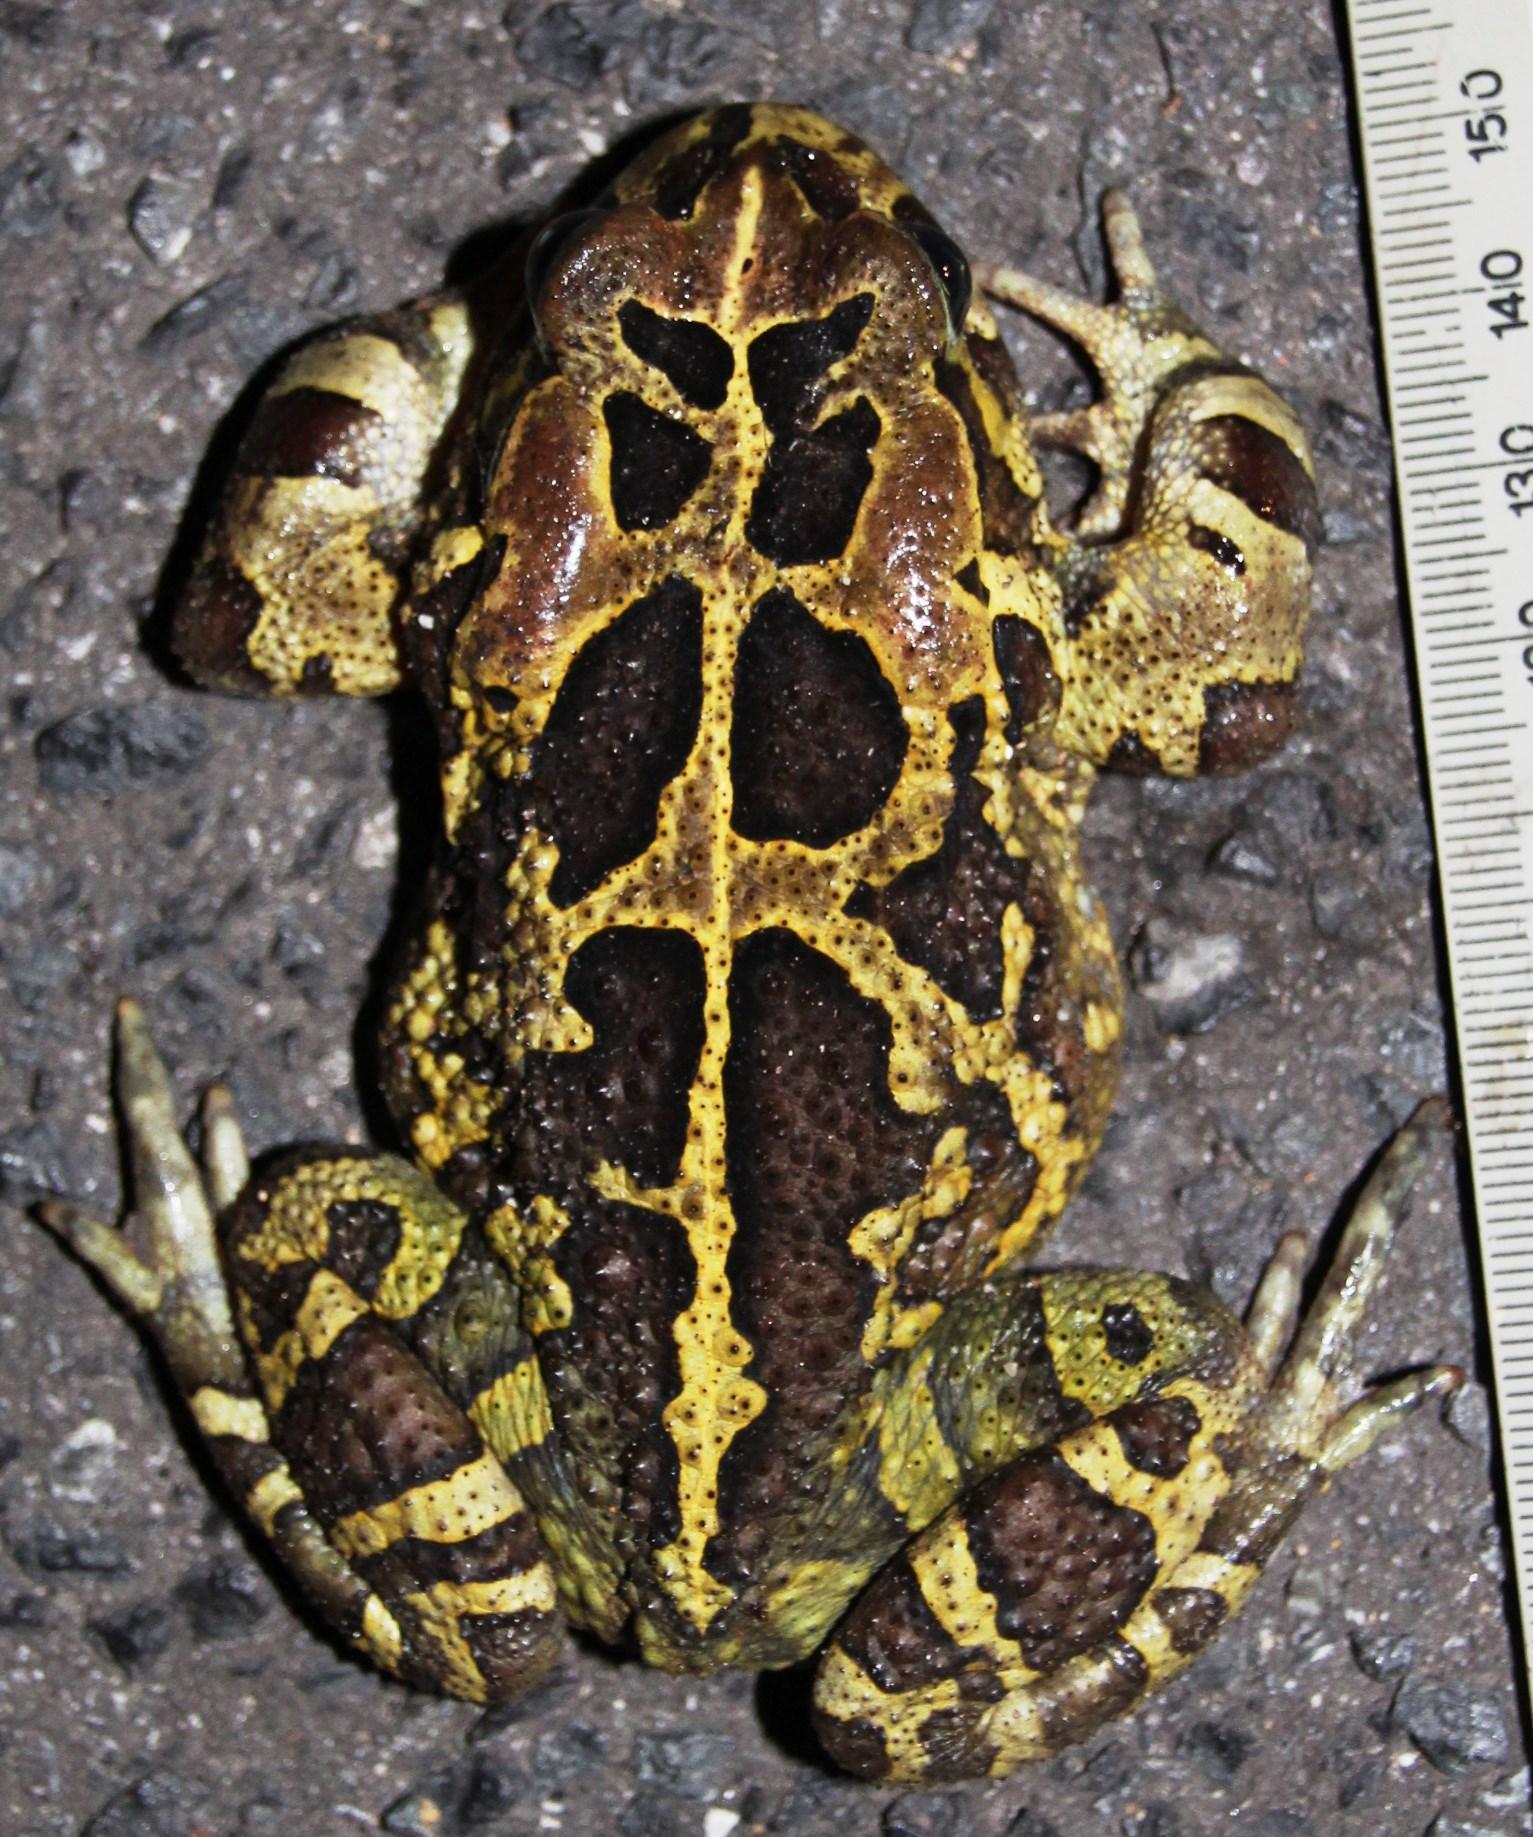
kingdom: Animalia
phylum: Chordata
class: Amphibia
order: Anura
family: Bufonidae
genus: Sclerophrys
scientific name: Sclerophrys pantherina
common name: Panther toad
